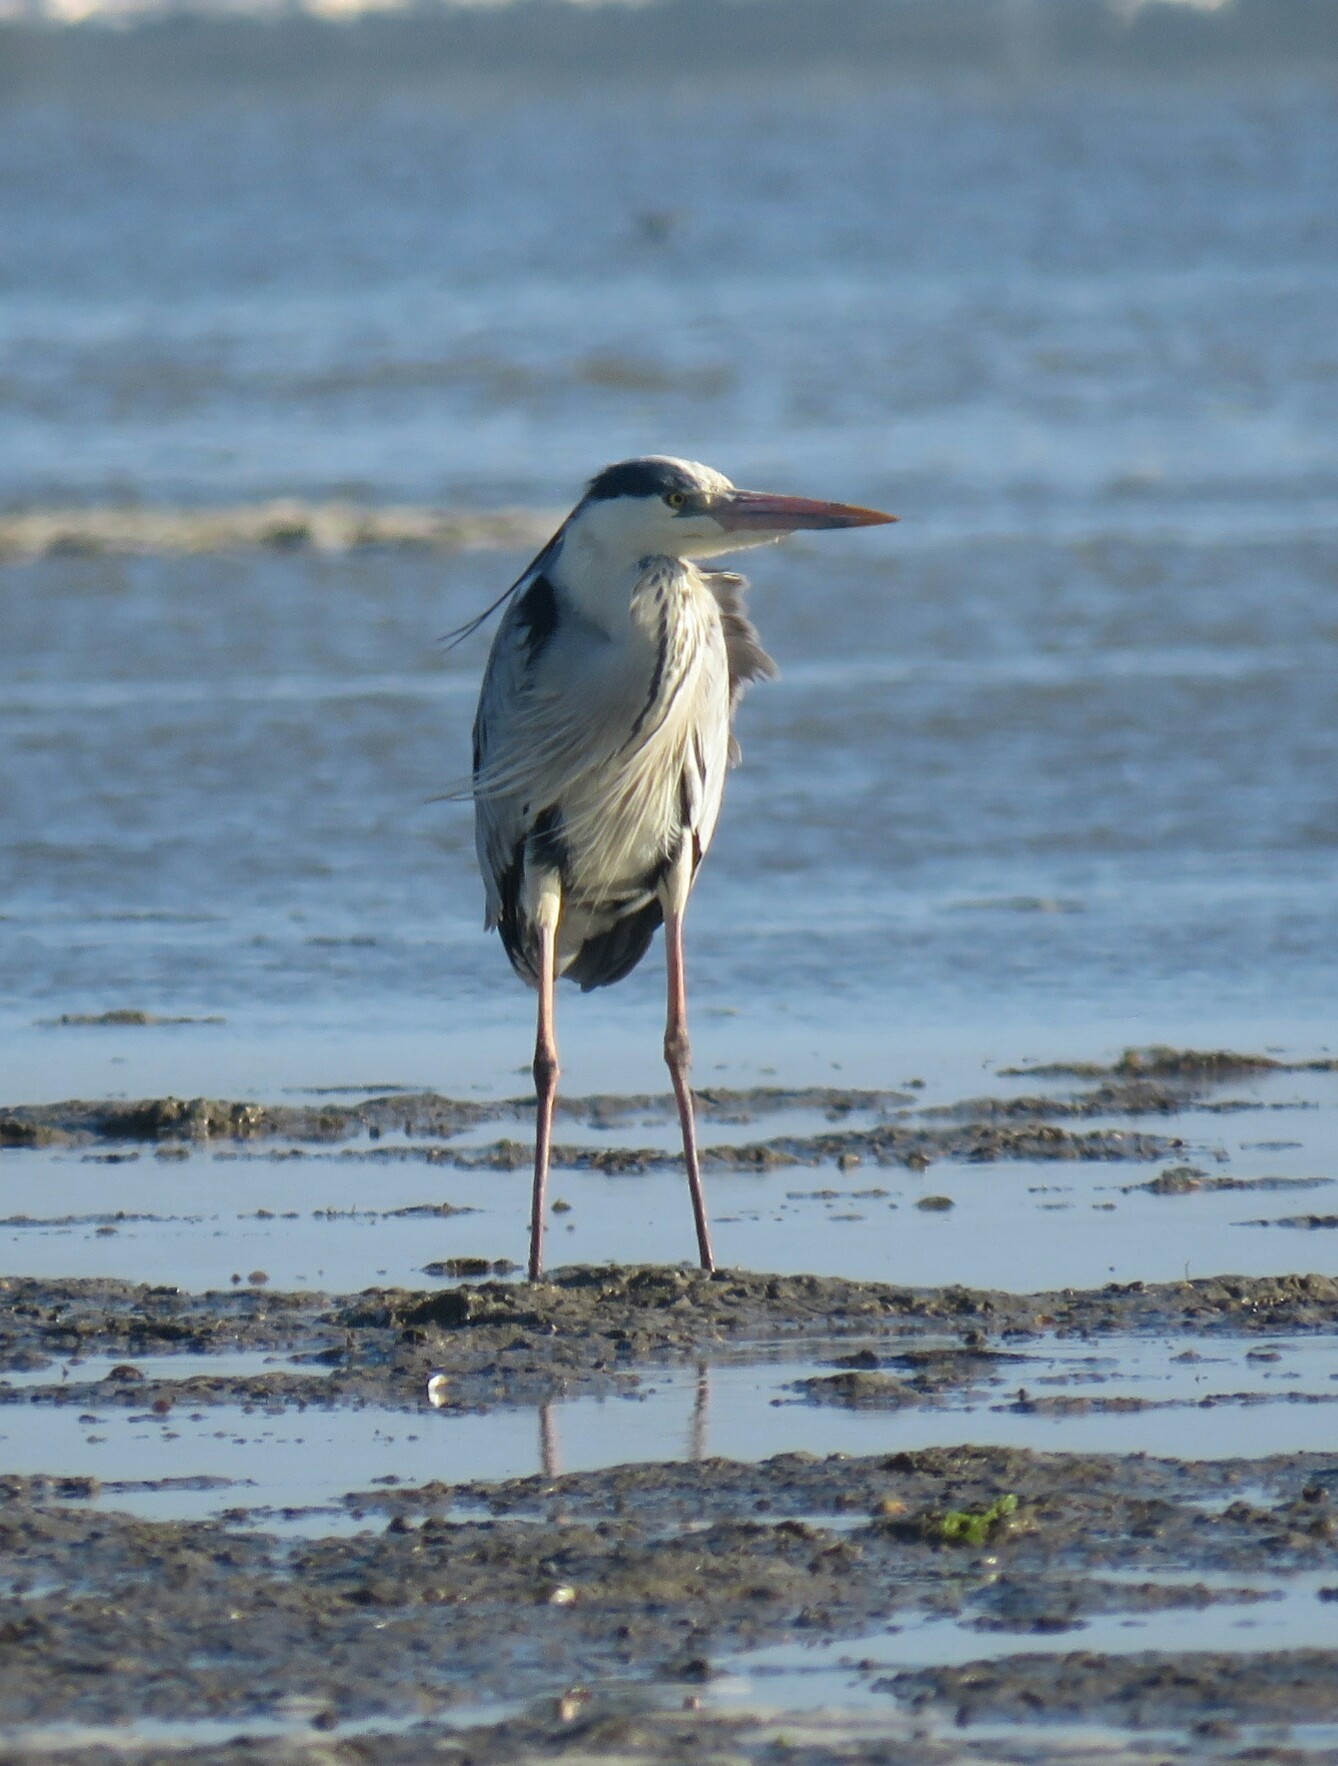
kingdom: Animalia
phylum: Chordata
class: Aves
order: Pelecaniformes
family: Ardeidae
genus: Ardea
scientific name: Ardea cinerea
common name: Grey heron
